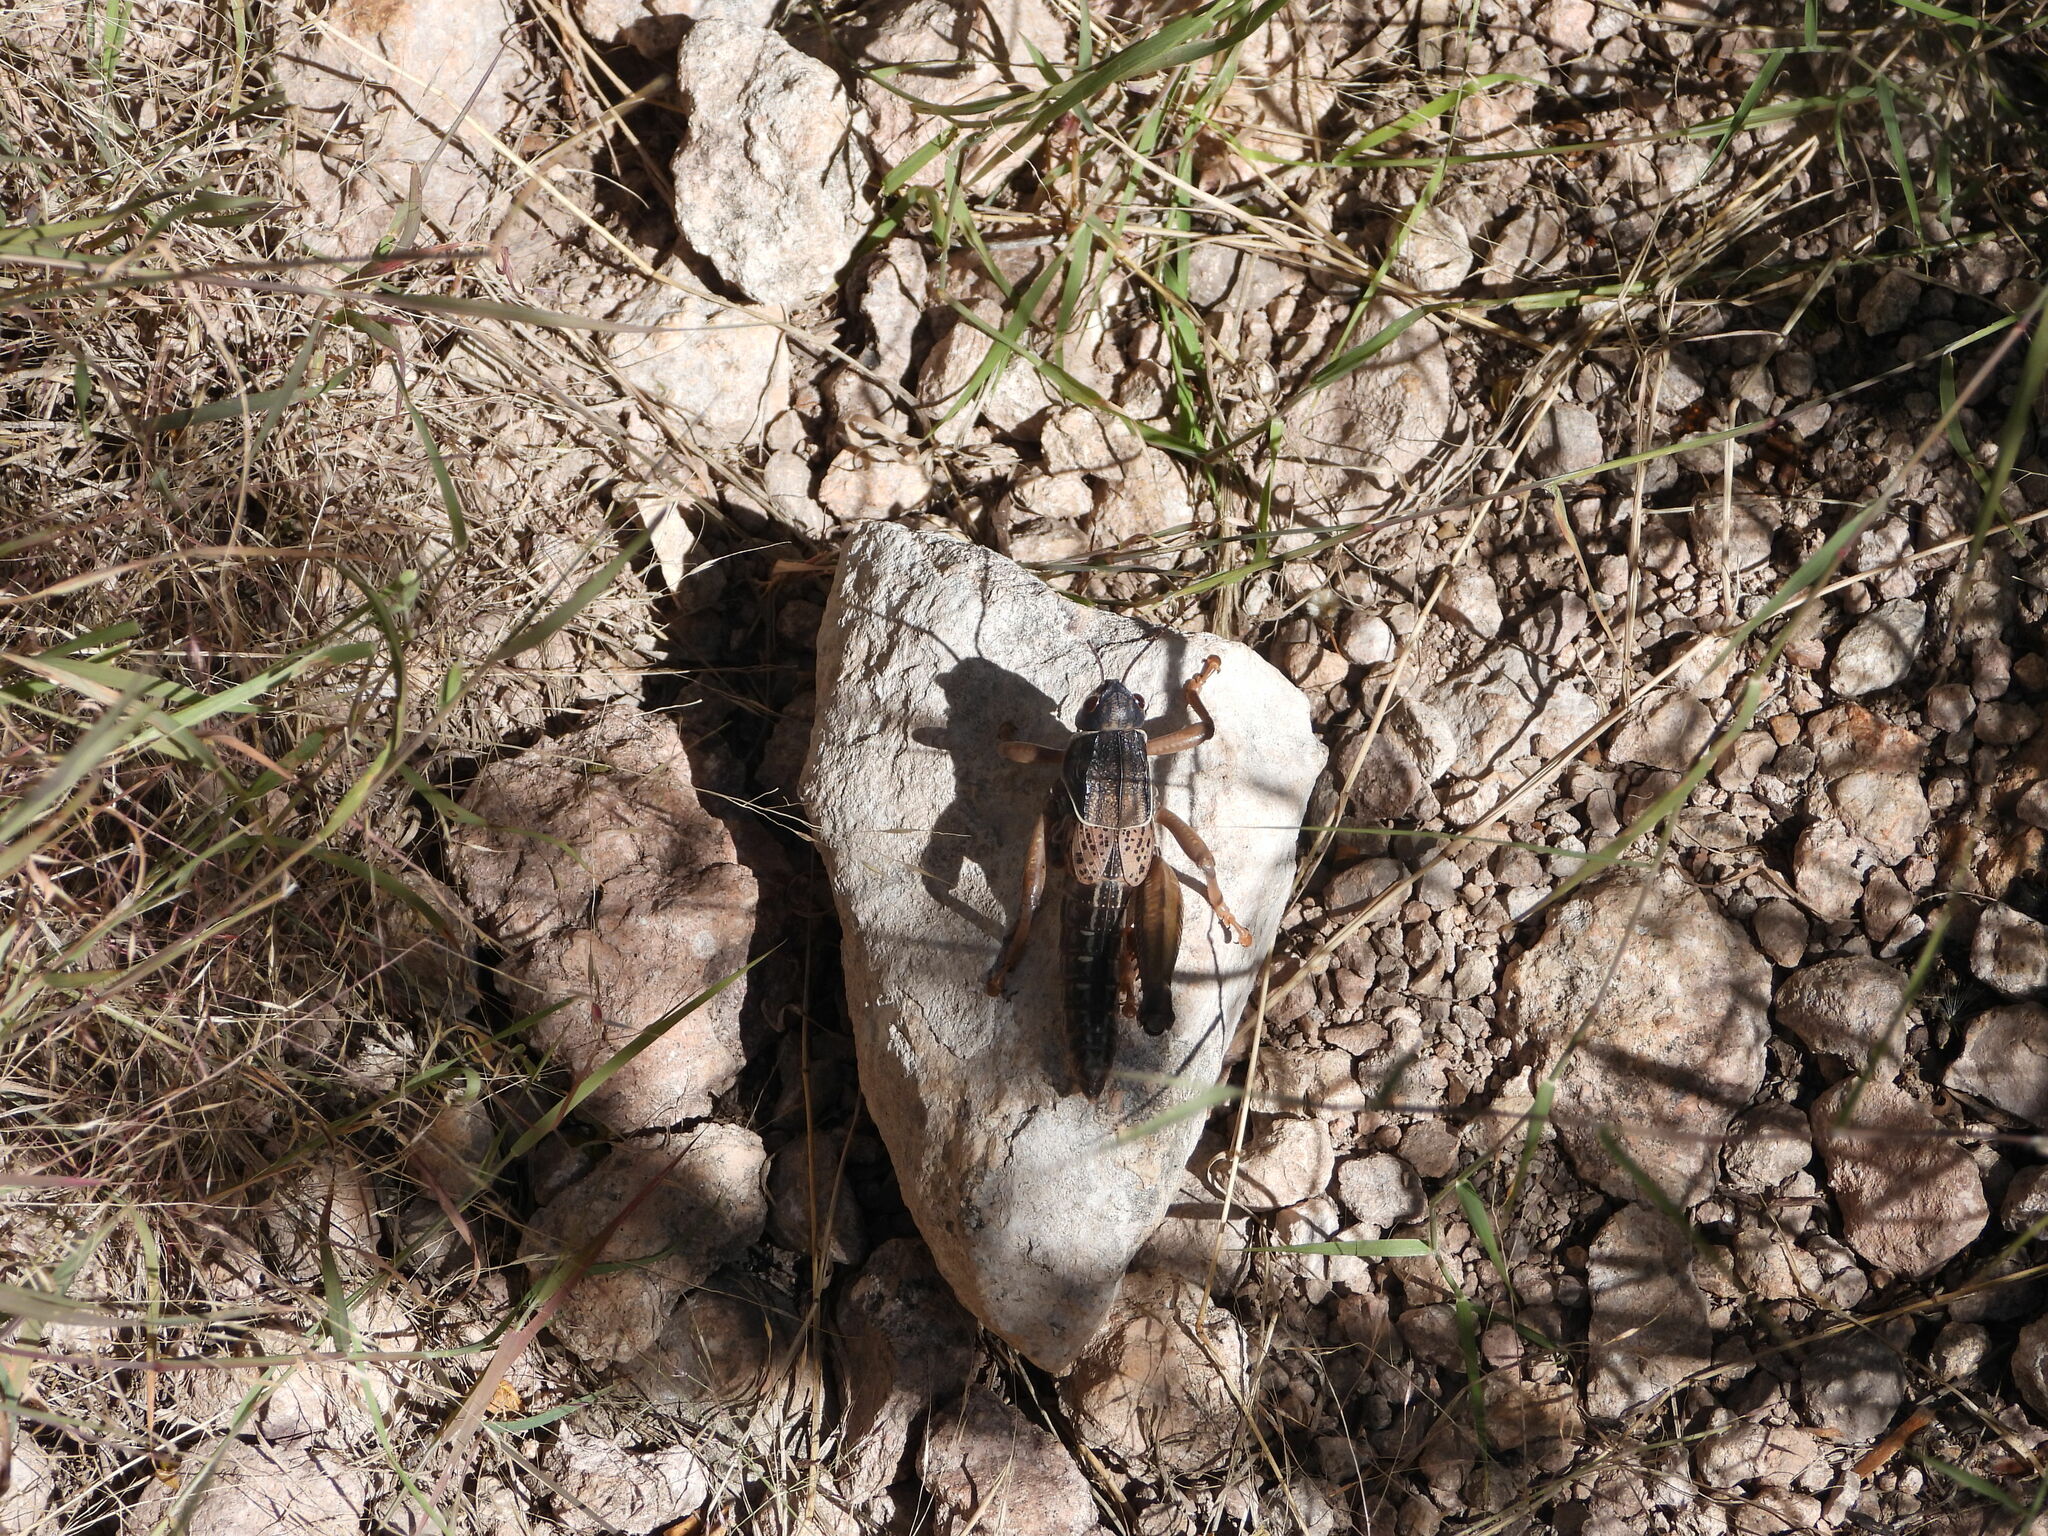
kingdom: Animalia
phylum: Arthropoda
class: Insecta
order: Orthoptera
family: Romaleidae
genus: Brachystola
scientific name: Brachystola magna
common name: Plains lubber grasshopper
